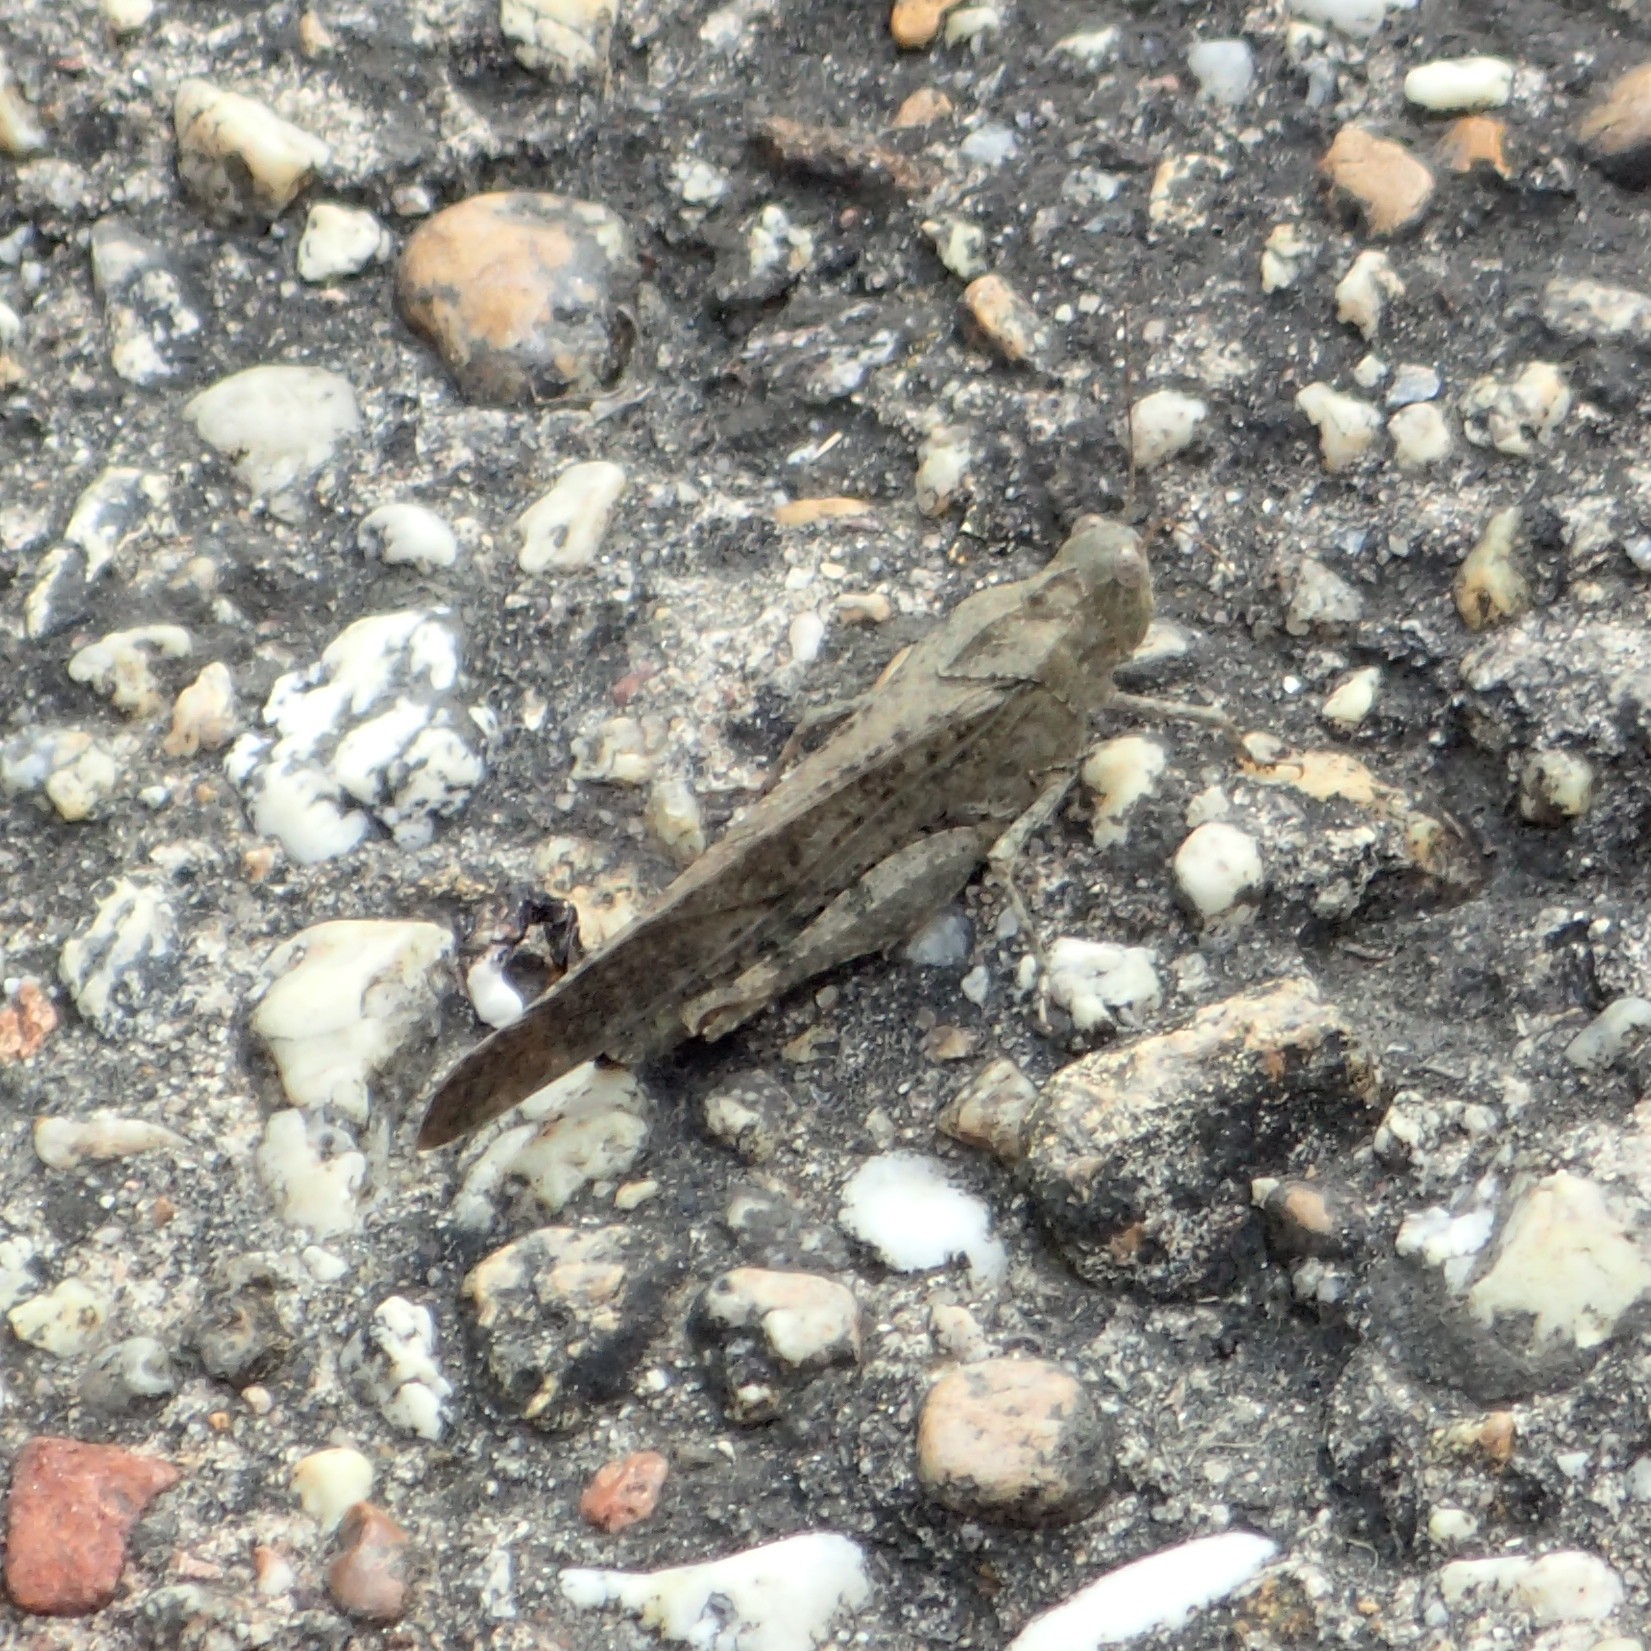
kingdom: Animalia
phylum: Arthropoda
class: Insecta
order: Orthoptera
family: Acrididae
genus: Dissosteira
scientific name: Dissosteira carolina
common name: Carolina grasshopper
